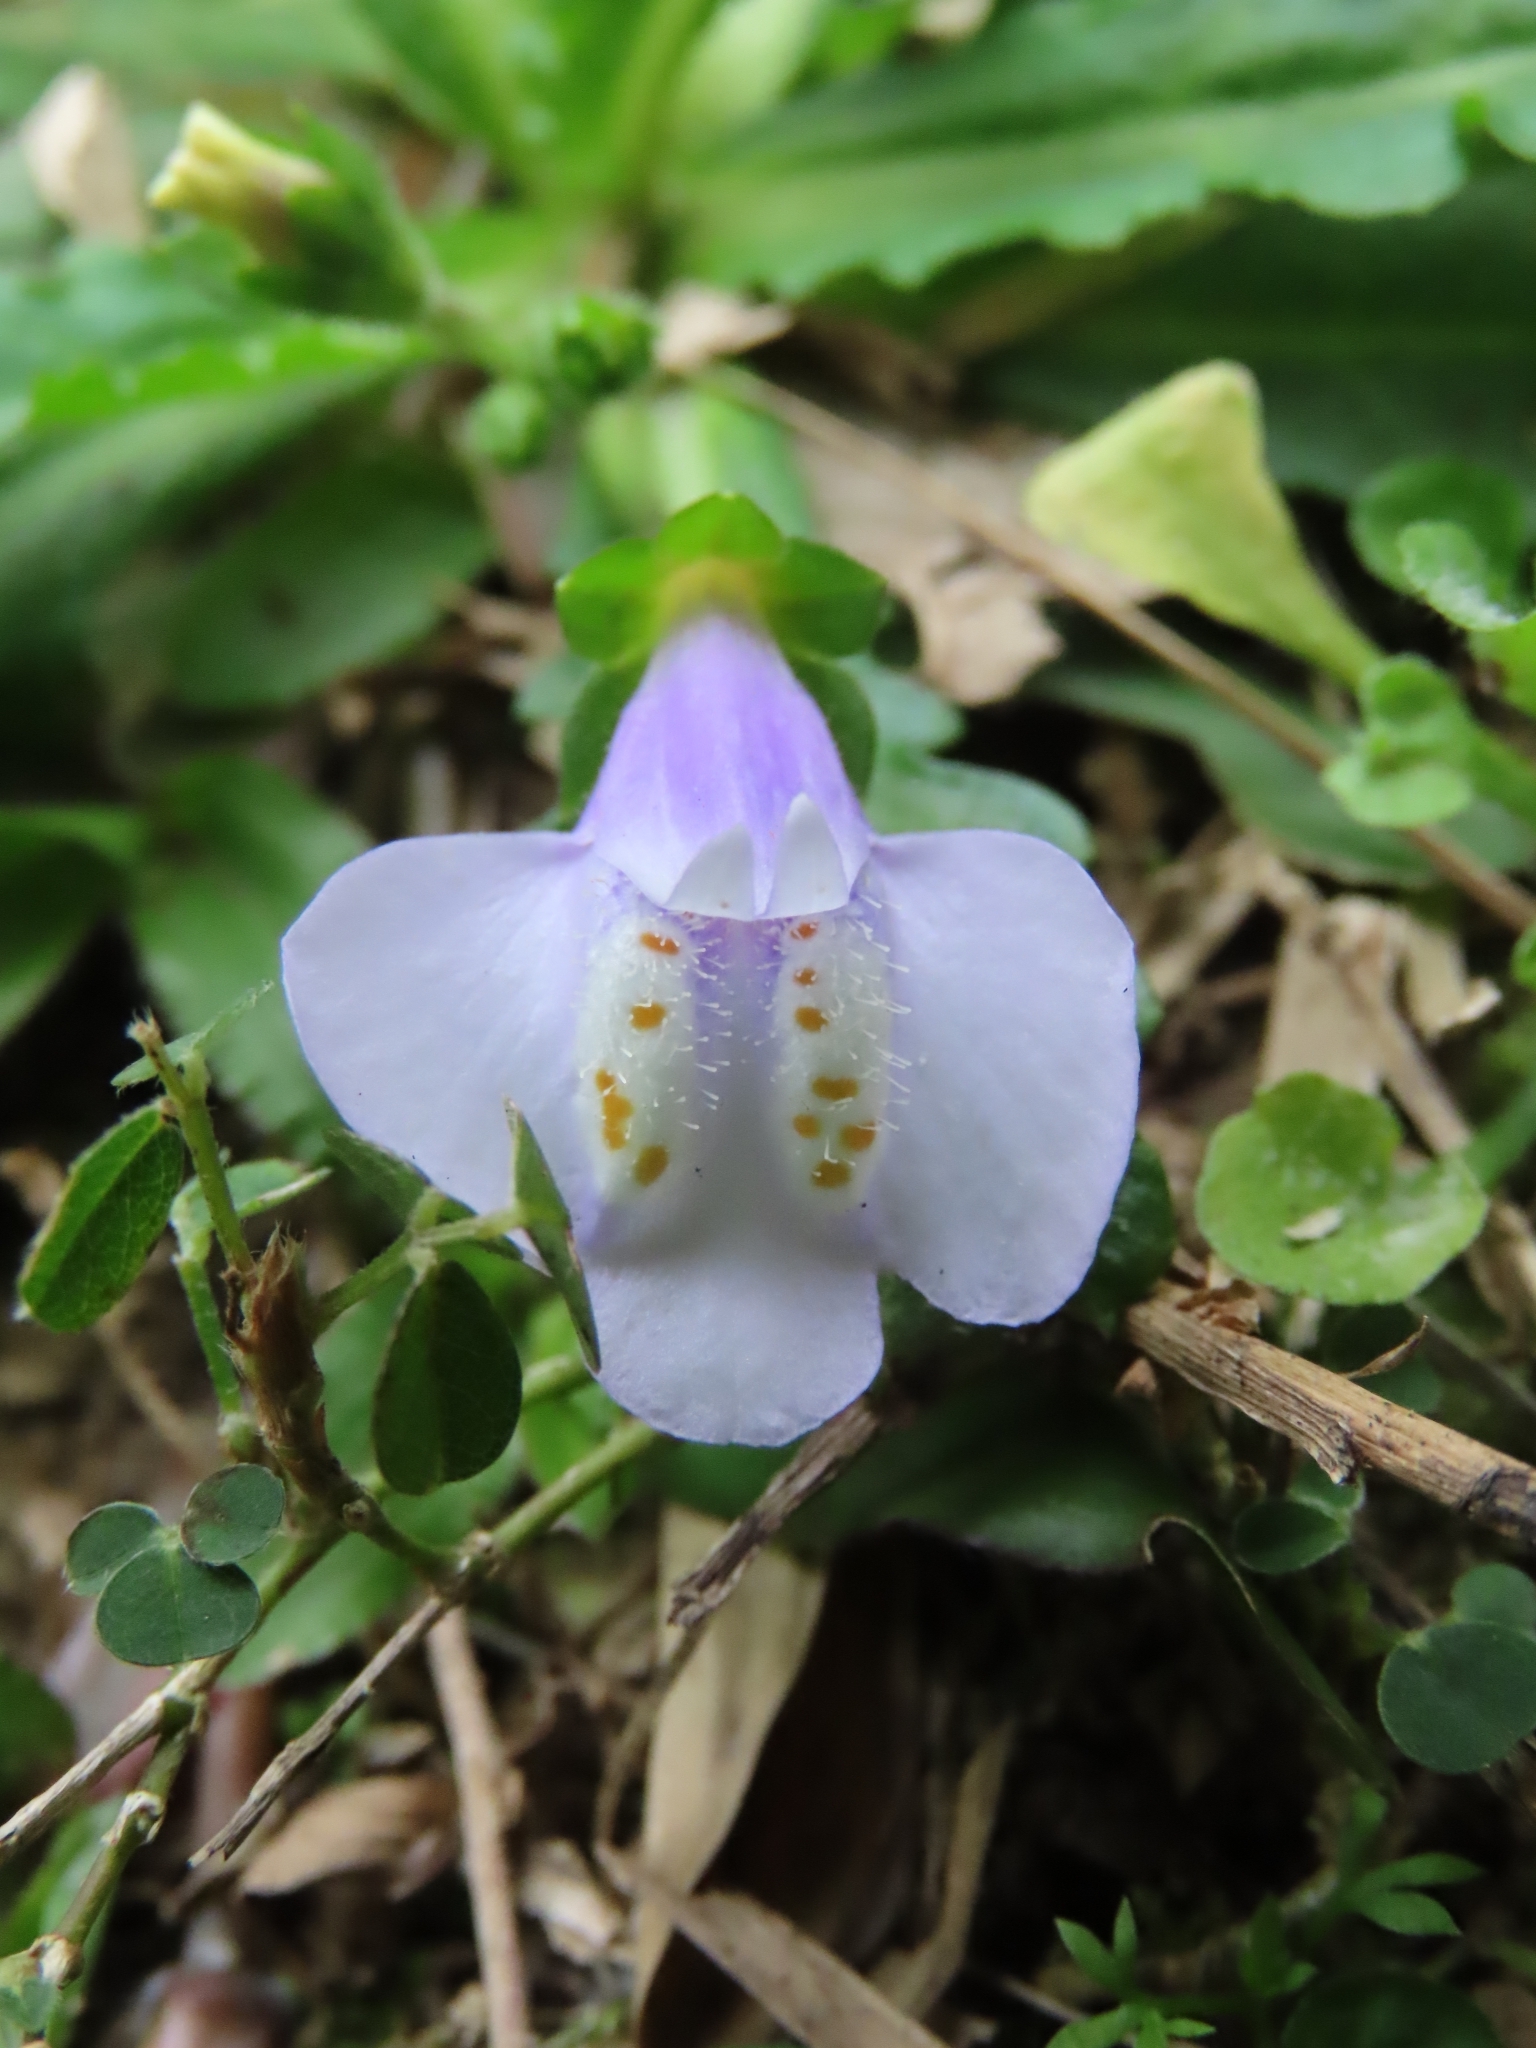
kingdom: Plantae
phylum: Tracheophyta
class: Magnoliopsida
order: Lamiales
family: Mazaceae
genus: Mazus
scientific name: Mazus fauriei
